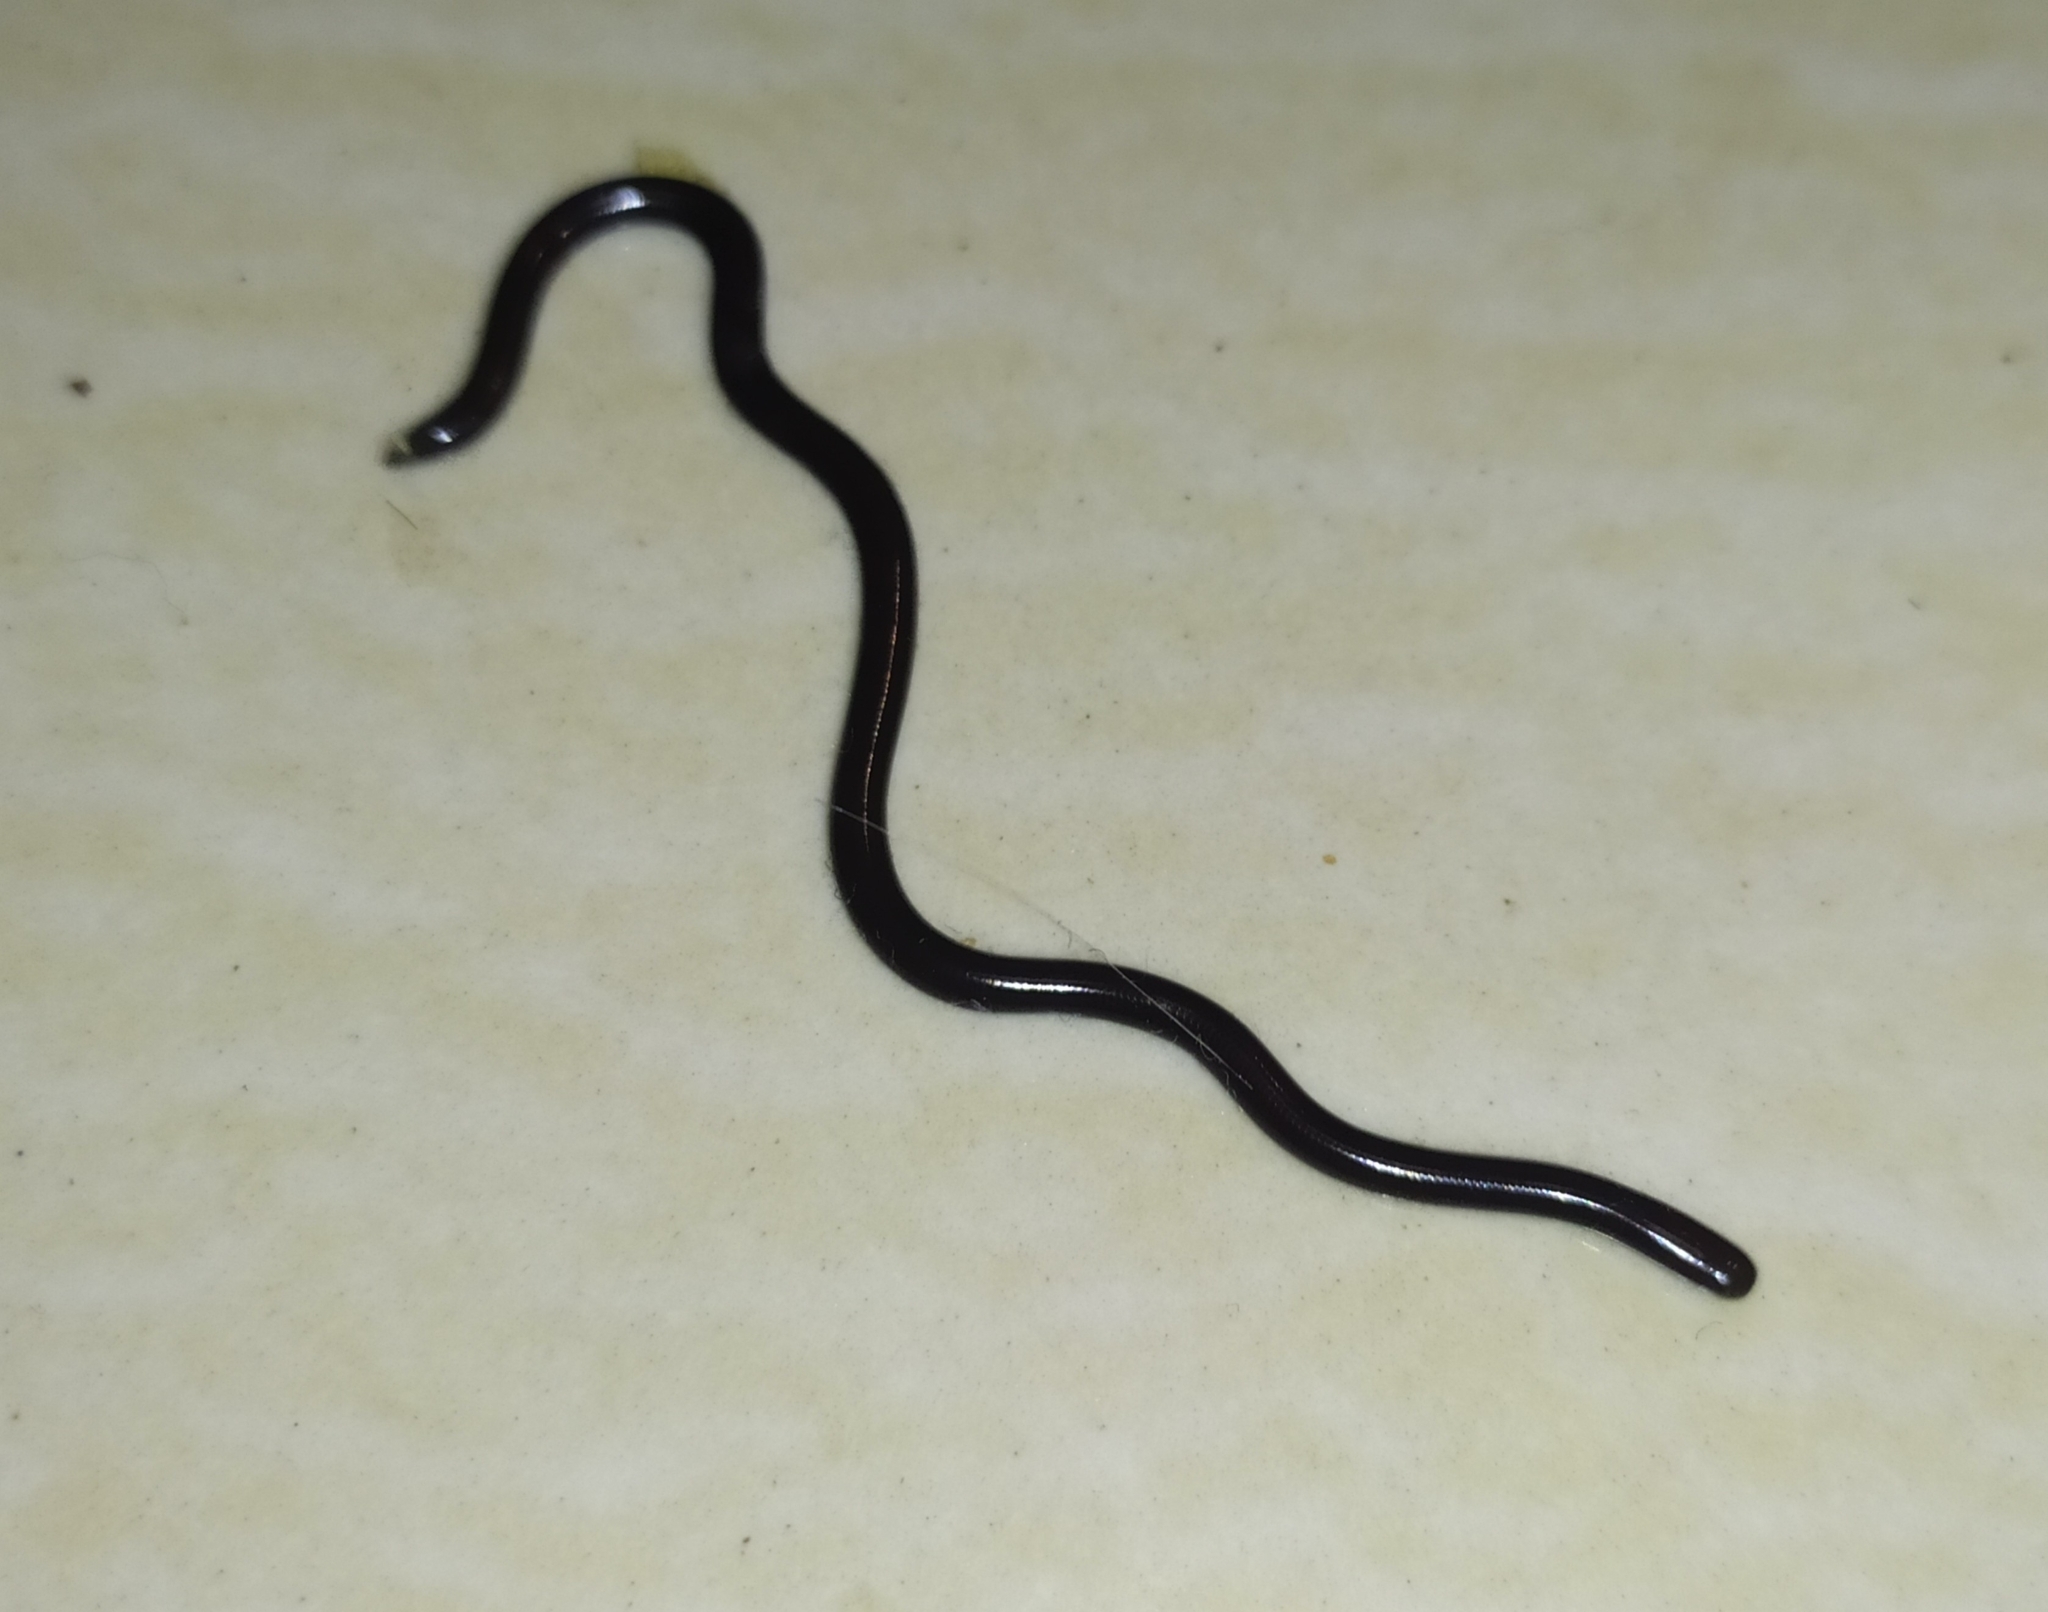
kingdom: Animalia
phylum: Chordata
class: Squamata
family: Typhlopidae
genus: Indotyphlops
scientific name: Indotyphlops braminus
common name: Brahminy blindsnake
